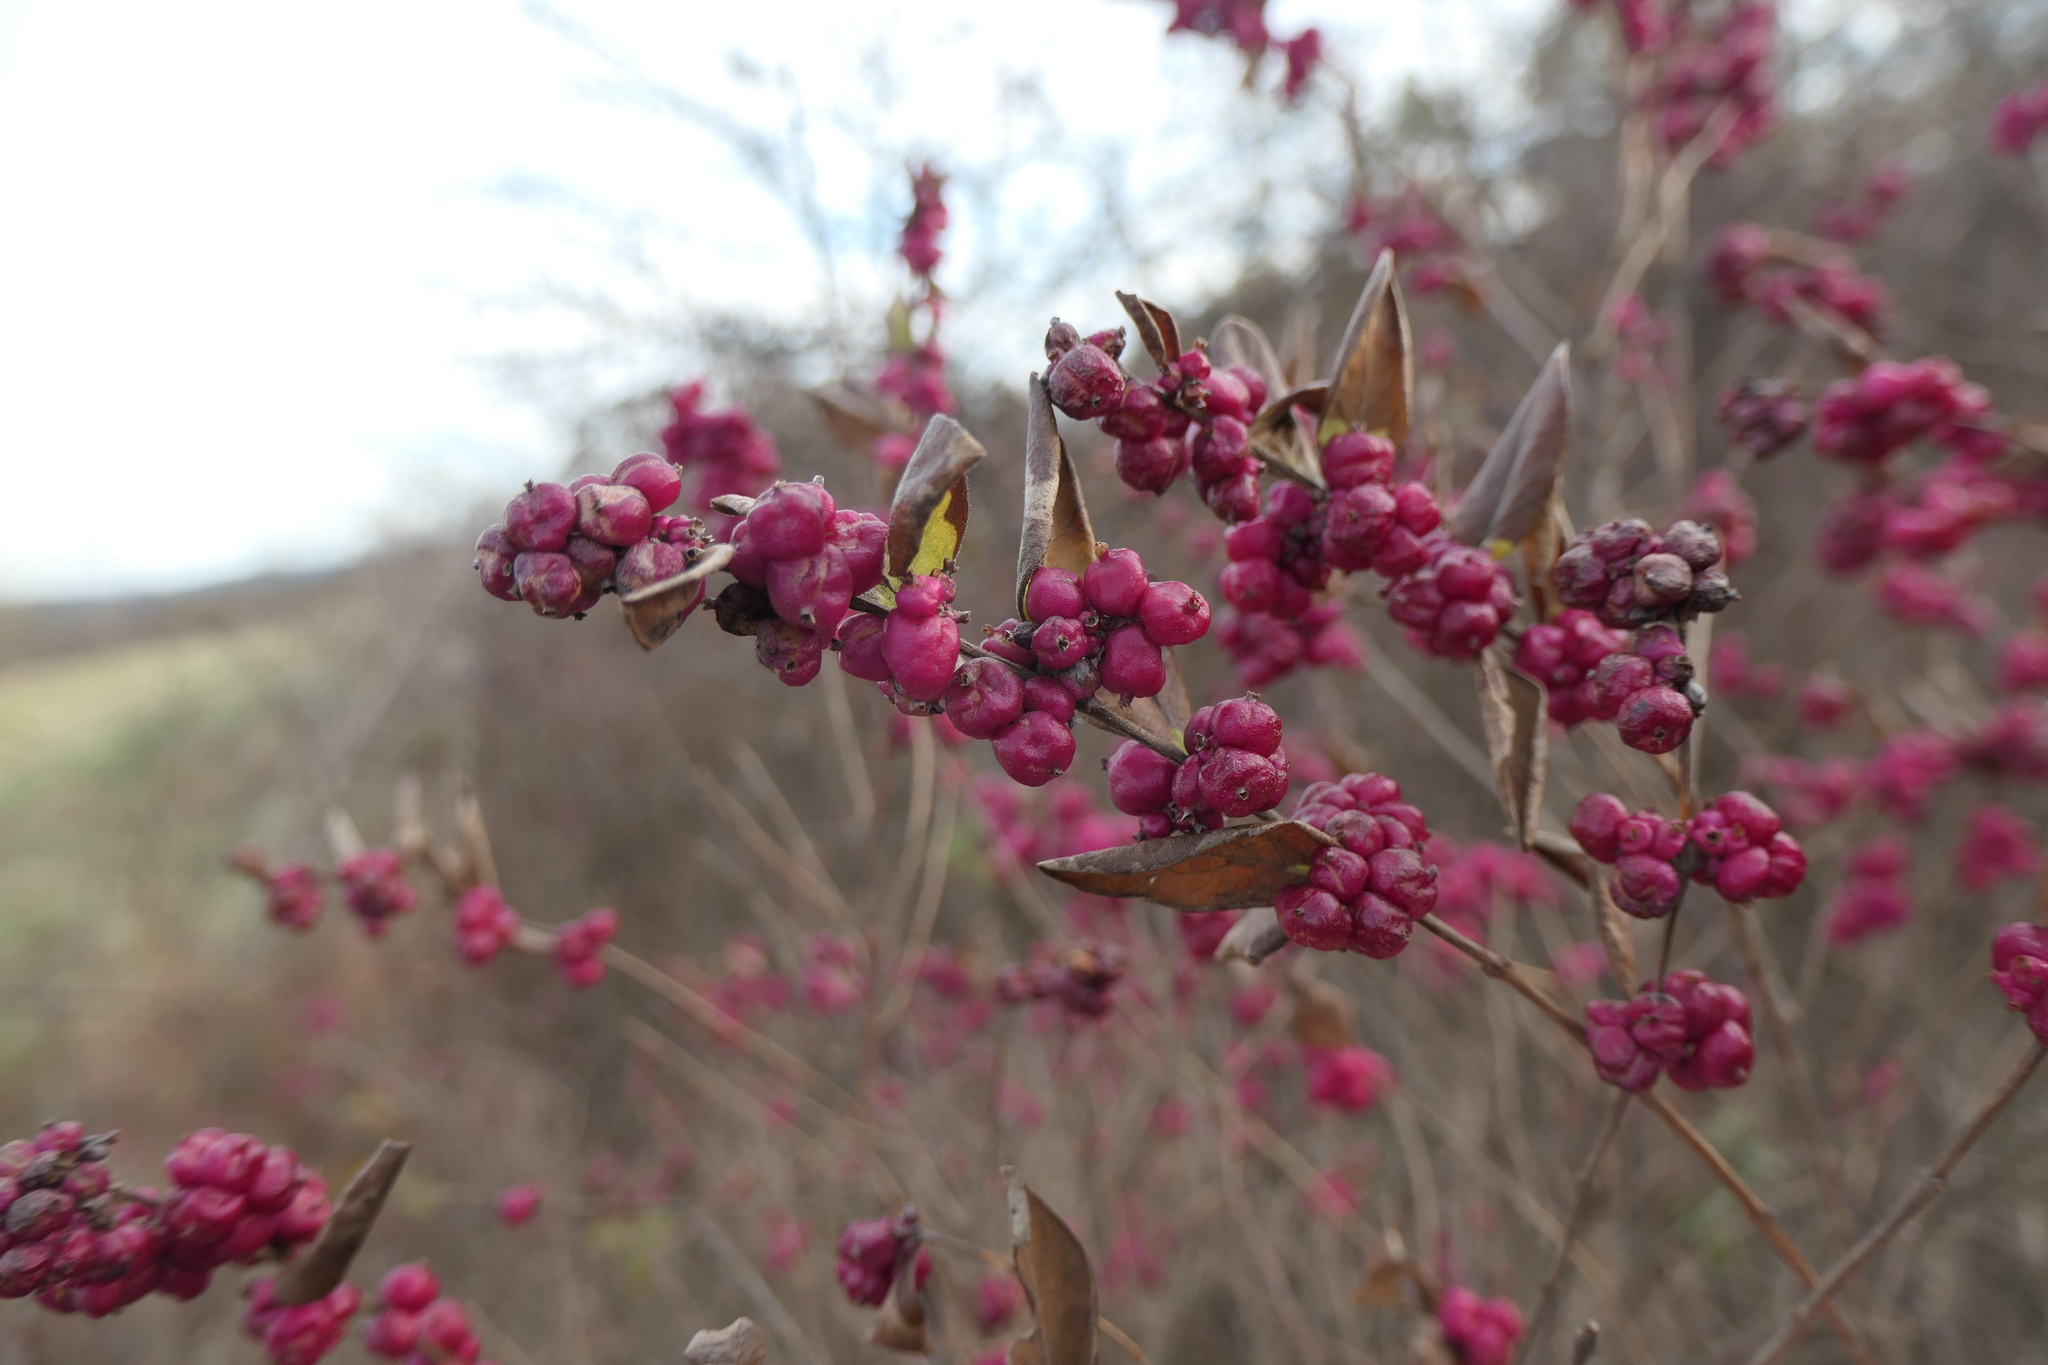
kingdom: Plantae
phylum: Tracheophyta
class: Magnoliopsida
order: Dipsacales
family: Caprifoliaceae
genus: Symphoricarpos
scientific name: Symphoricarpos orbiculatus
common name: Coralberry
